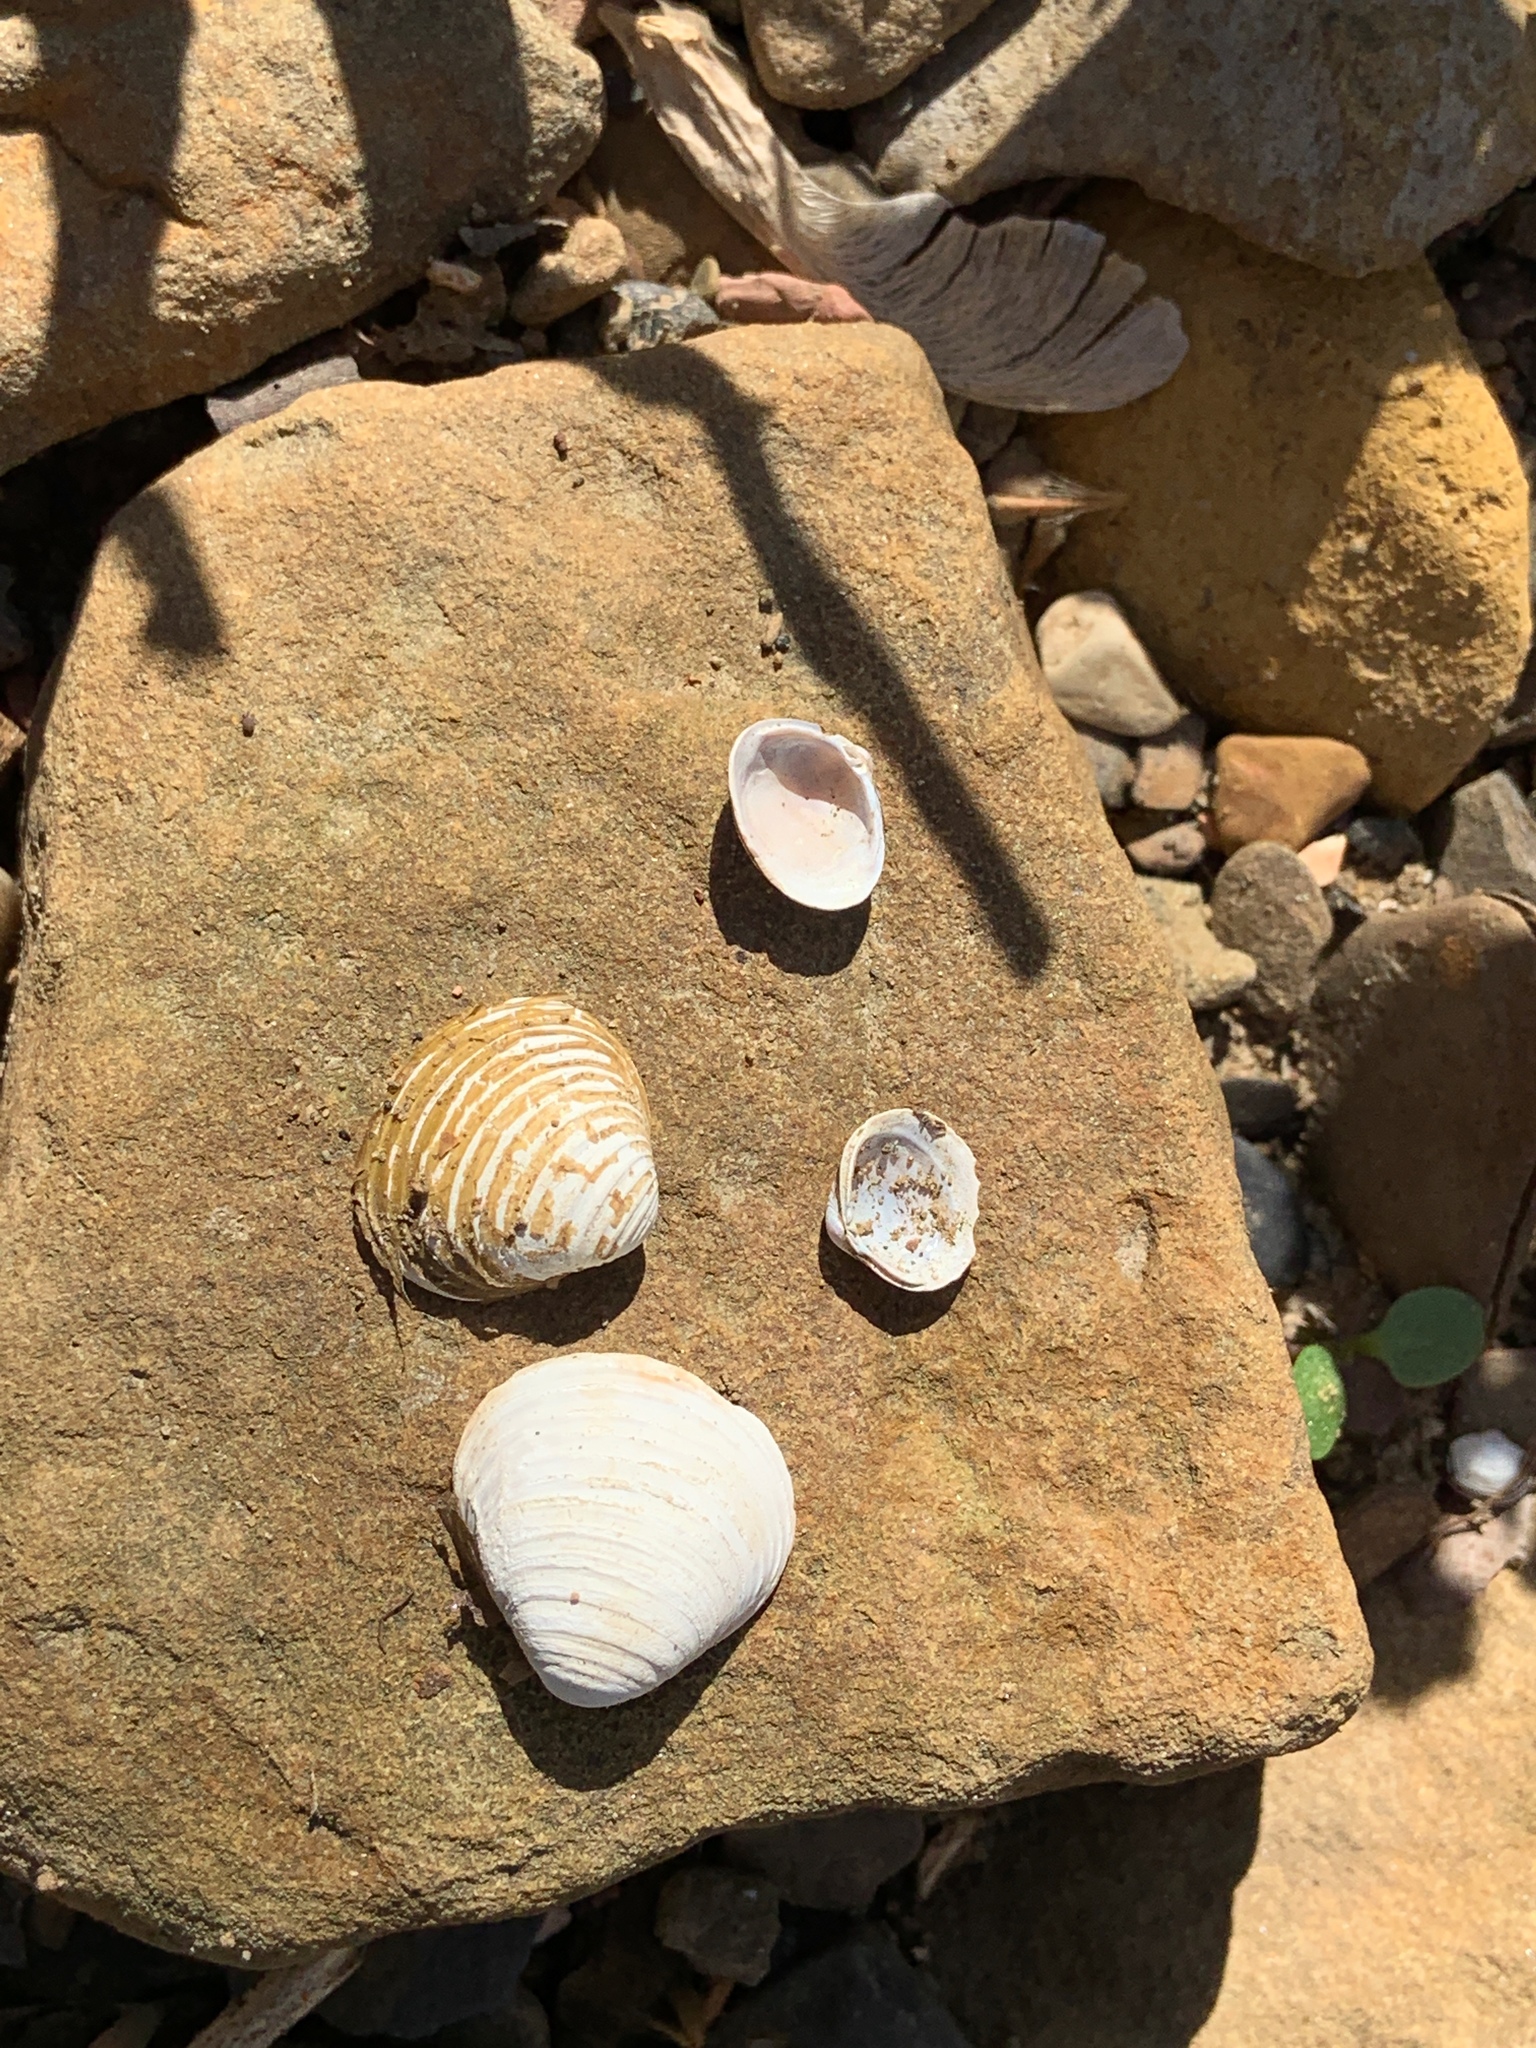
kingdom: Animalia
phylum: Mollusca
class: Bivalvia
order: Venerida
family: Cyrenidae
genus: Corbicula
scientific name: Corbicula fluminea
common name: Asian clam
